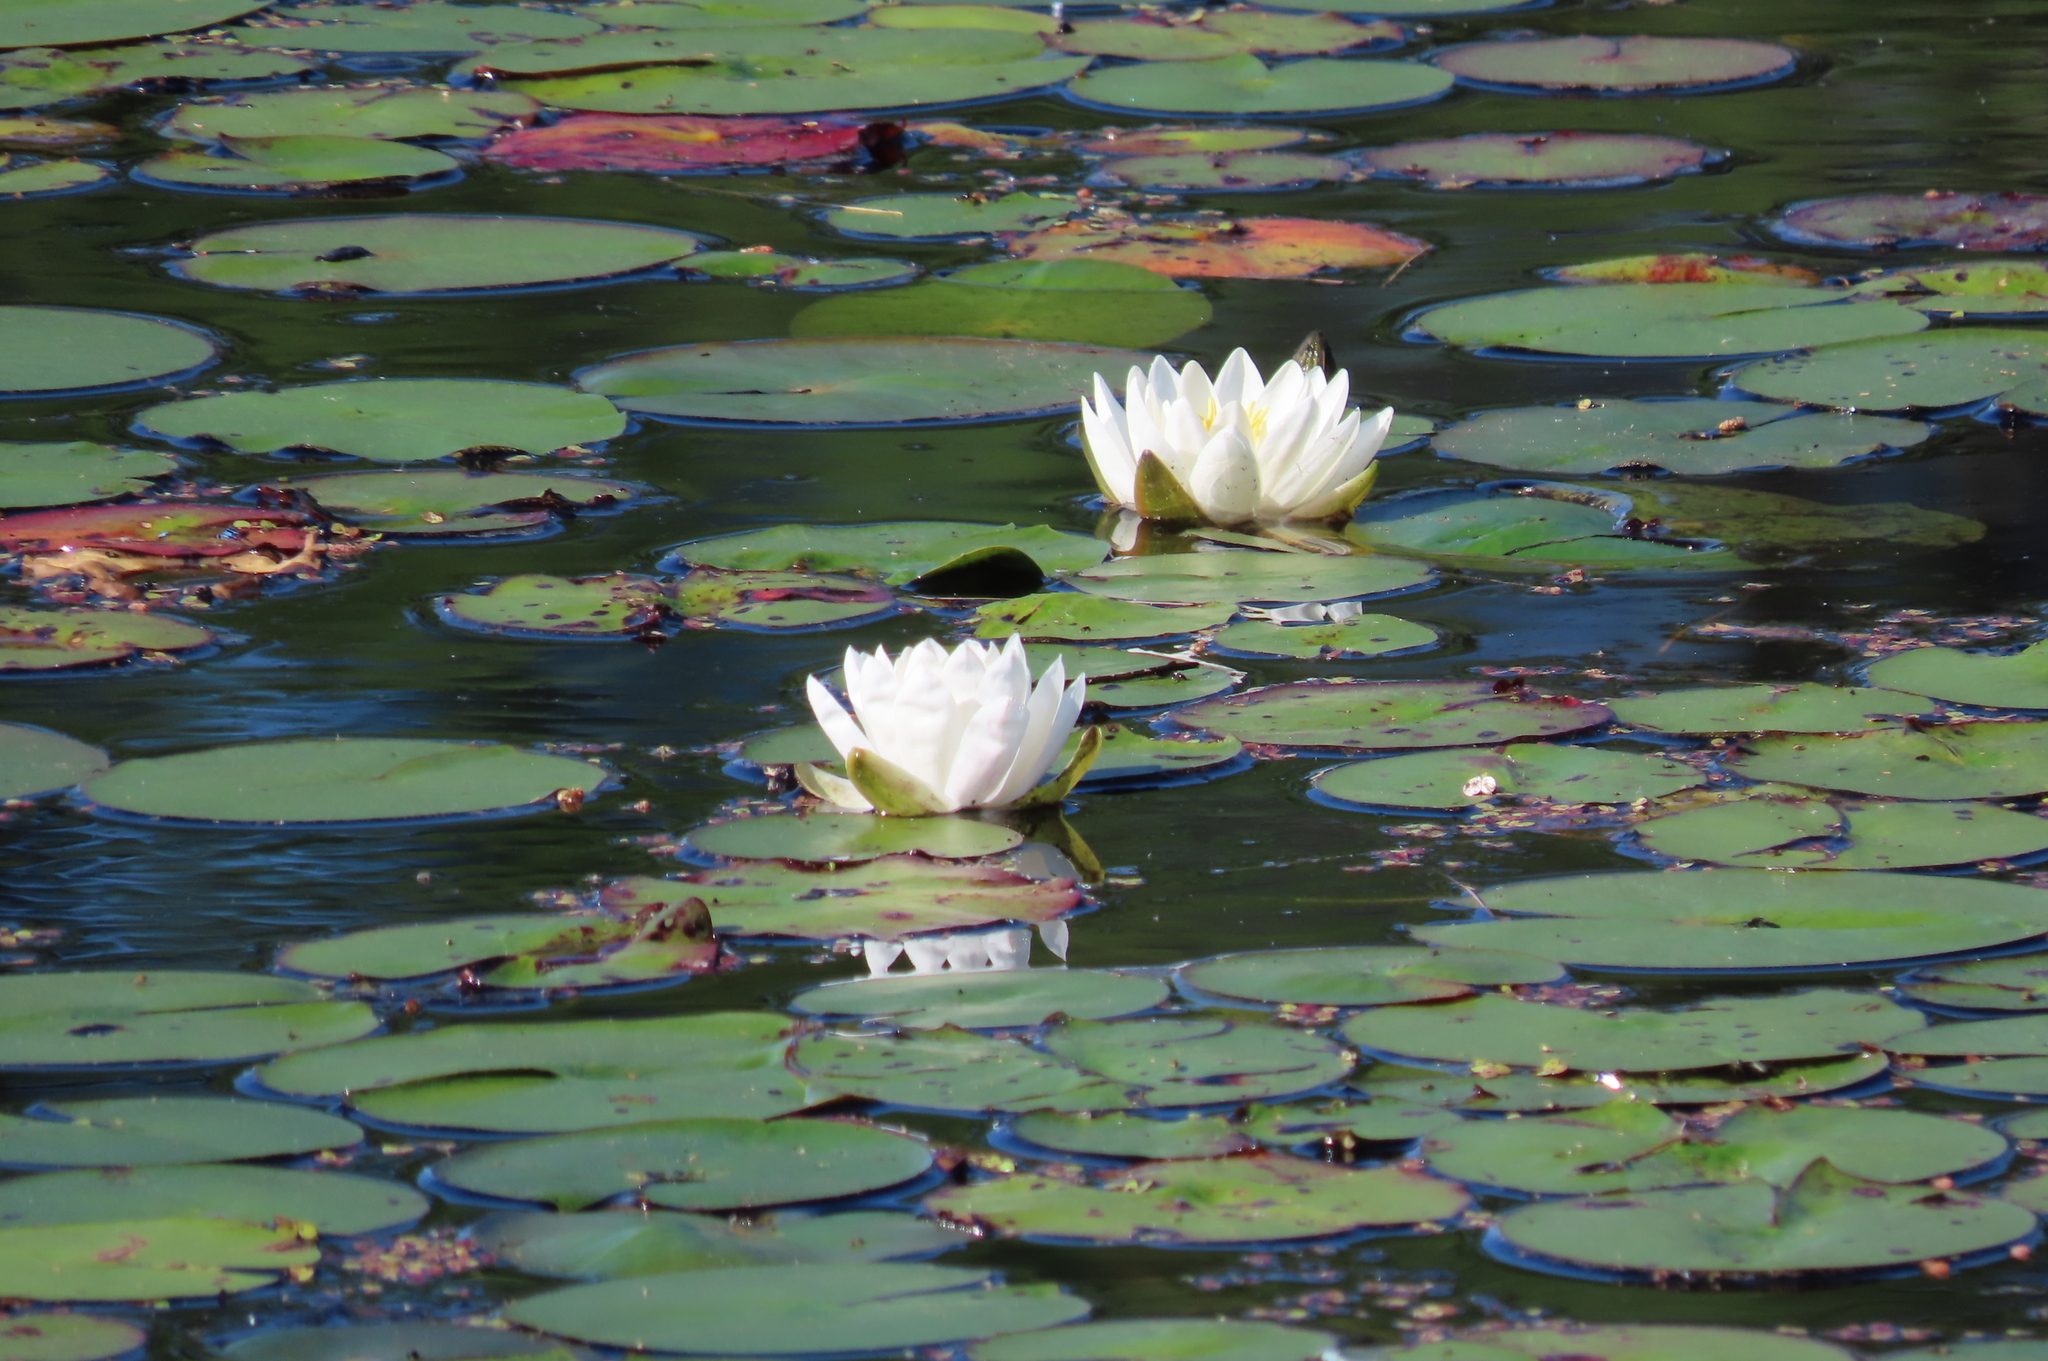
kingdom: Plantae
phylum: Tracheophyta
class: Magnoliopsida
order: Nymphaeales
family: Nymphaeaceae
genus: Nymphaea
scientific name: Nymphaea odorata
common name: Fragrant water-lily
